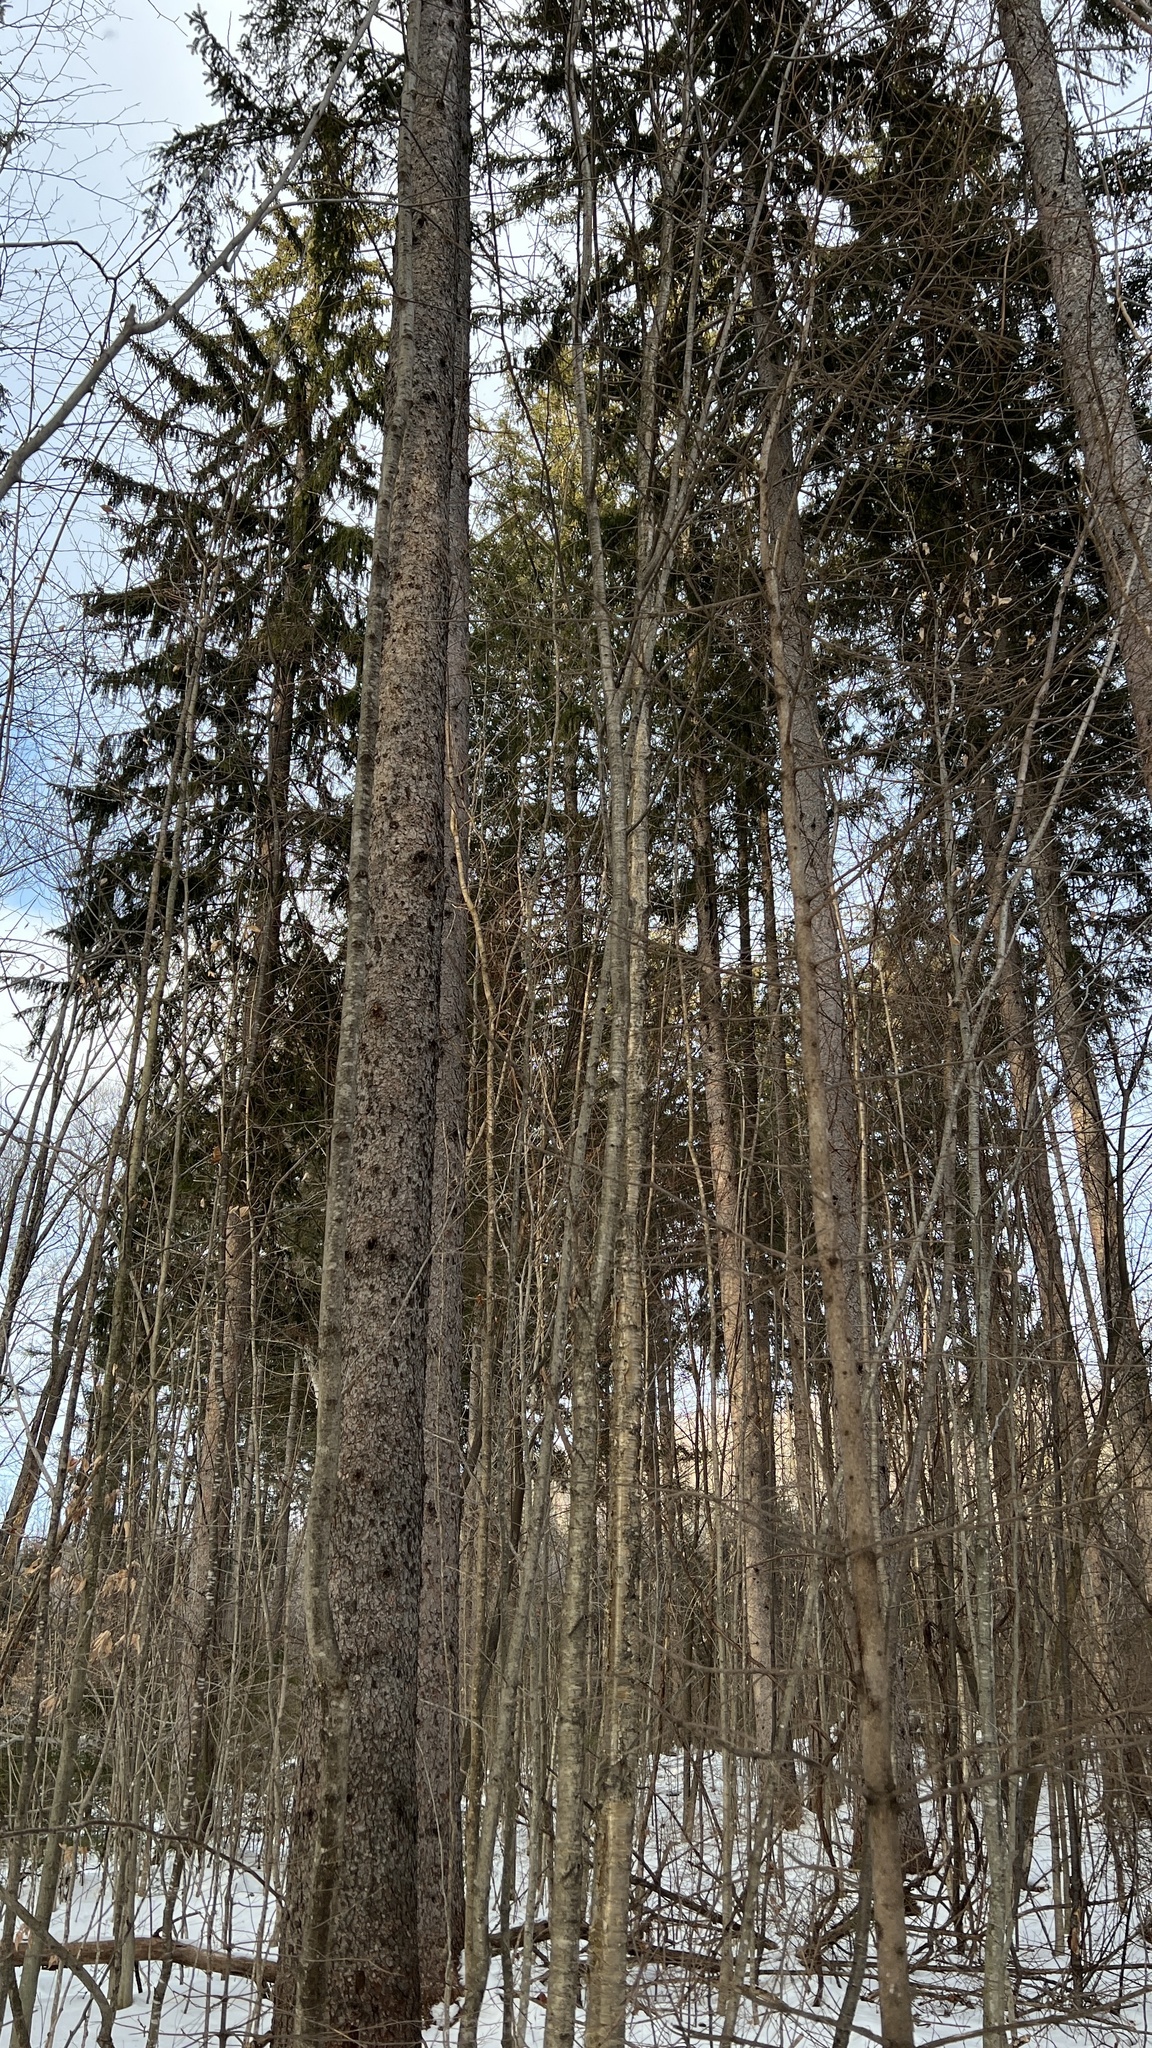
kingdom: Plantae
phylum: Tracheophyta
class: Pinopsida
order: Pinales
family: Pinaceae
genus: Picea
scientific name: Picea rubens
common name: Red spruce
